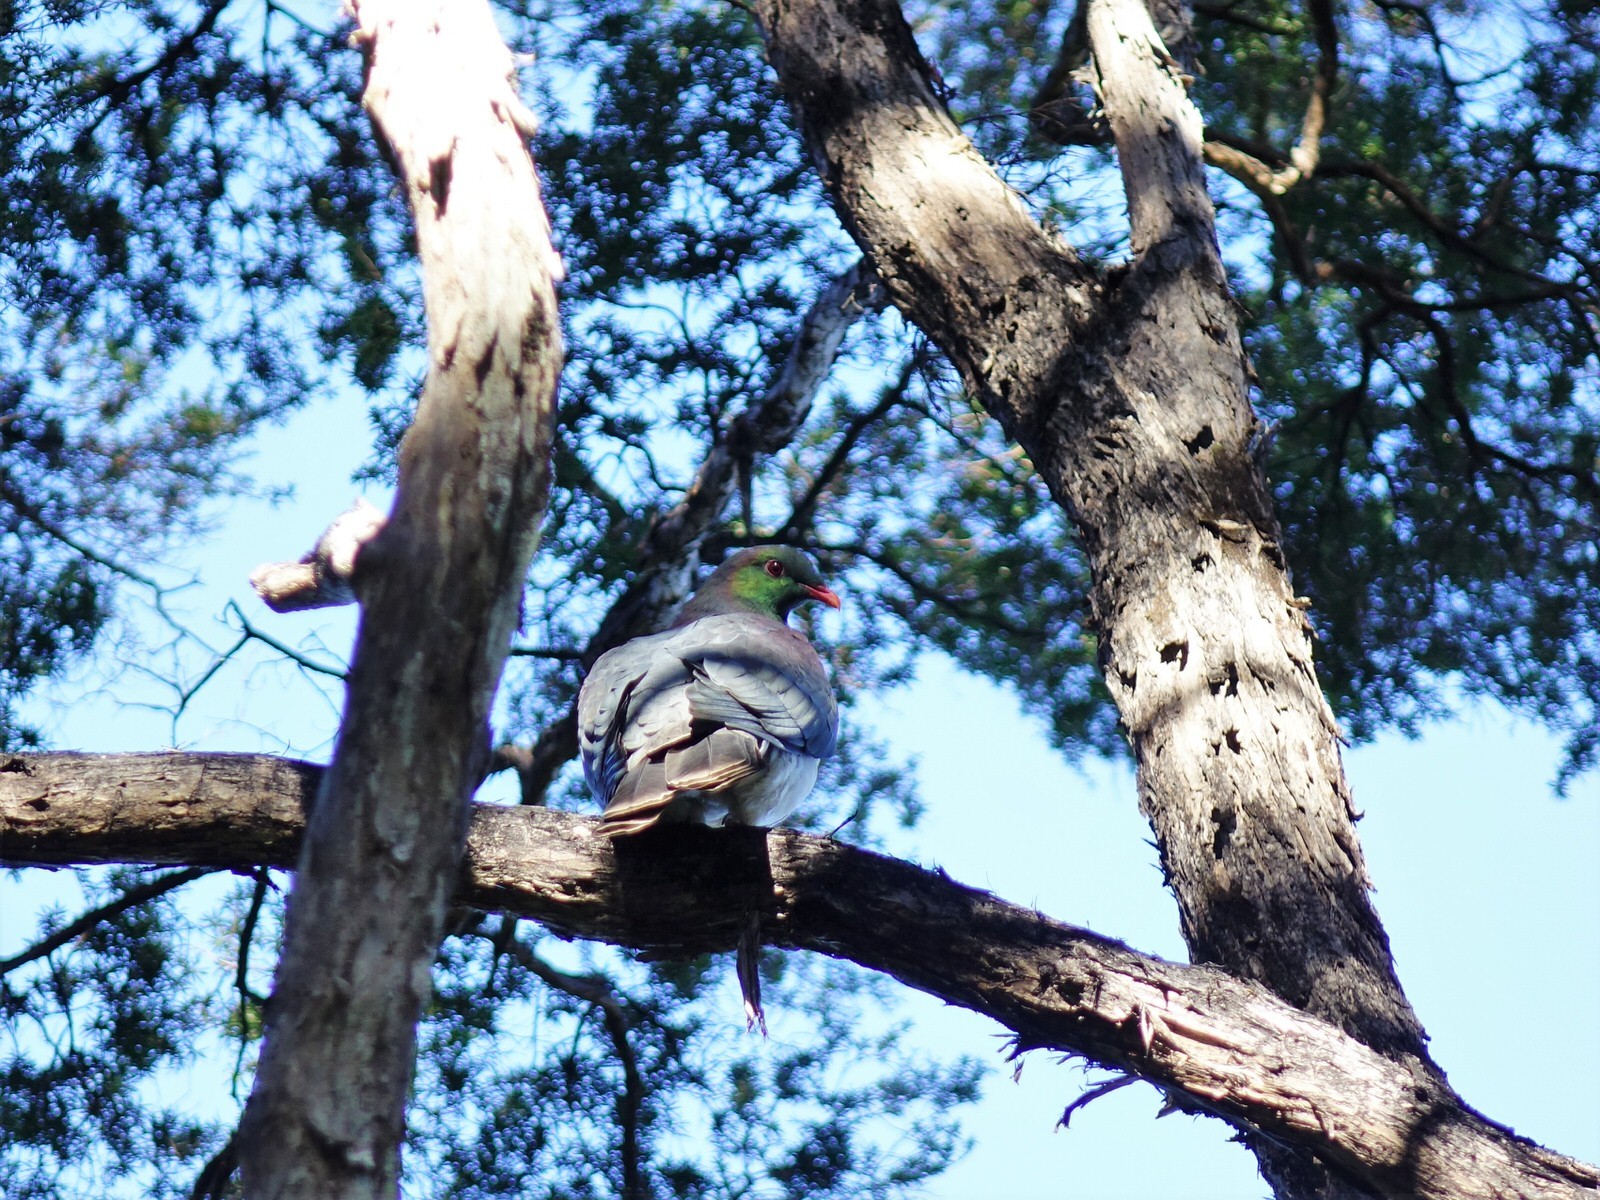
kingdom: Animalia
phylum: Chordata
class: Aves
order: Columbiformes
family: Columbidae
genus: Hemiphaga
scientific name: Hemiphaga novaeseelandiae
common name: New zealand pigeon
